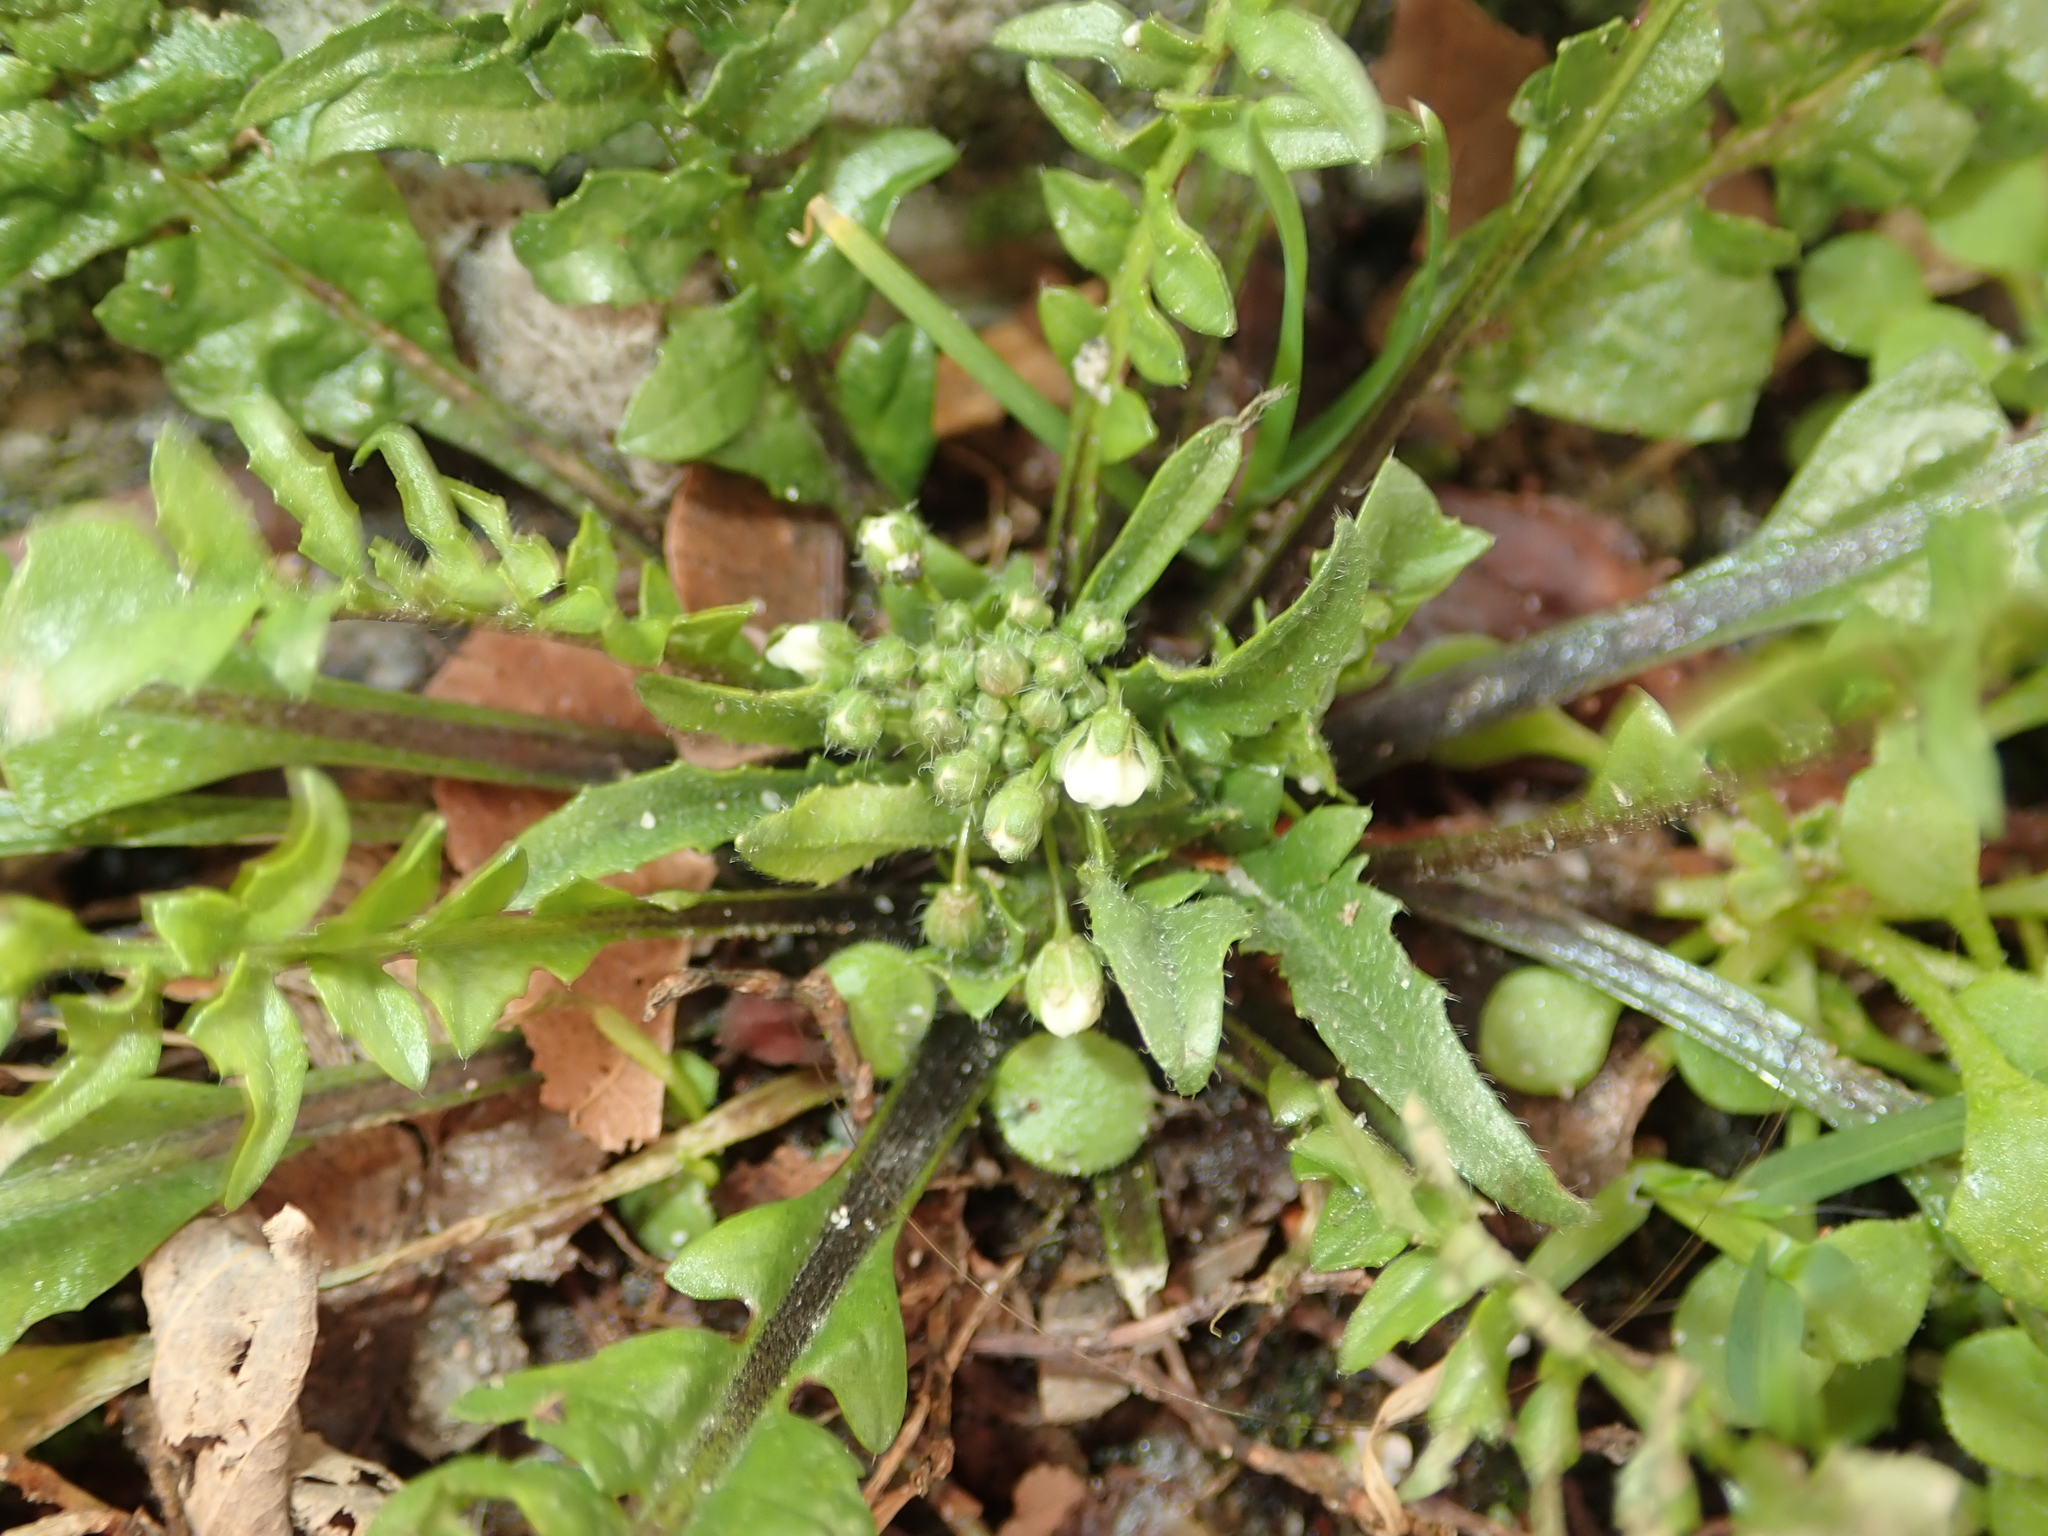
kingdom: Plantae
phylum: Tracheophyta
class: Magnoliopsida
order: Brassicales
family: Brassicaceae
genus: Capsella
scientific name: Capsella bursa-pastoris
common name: Shepherd's purse
